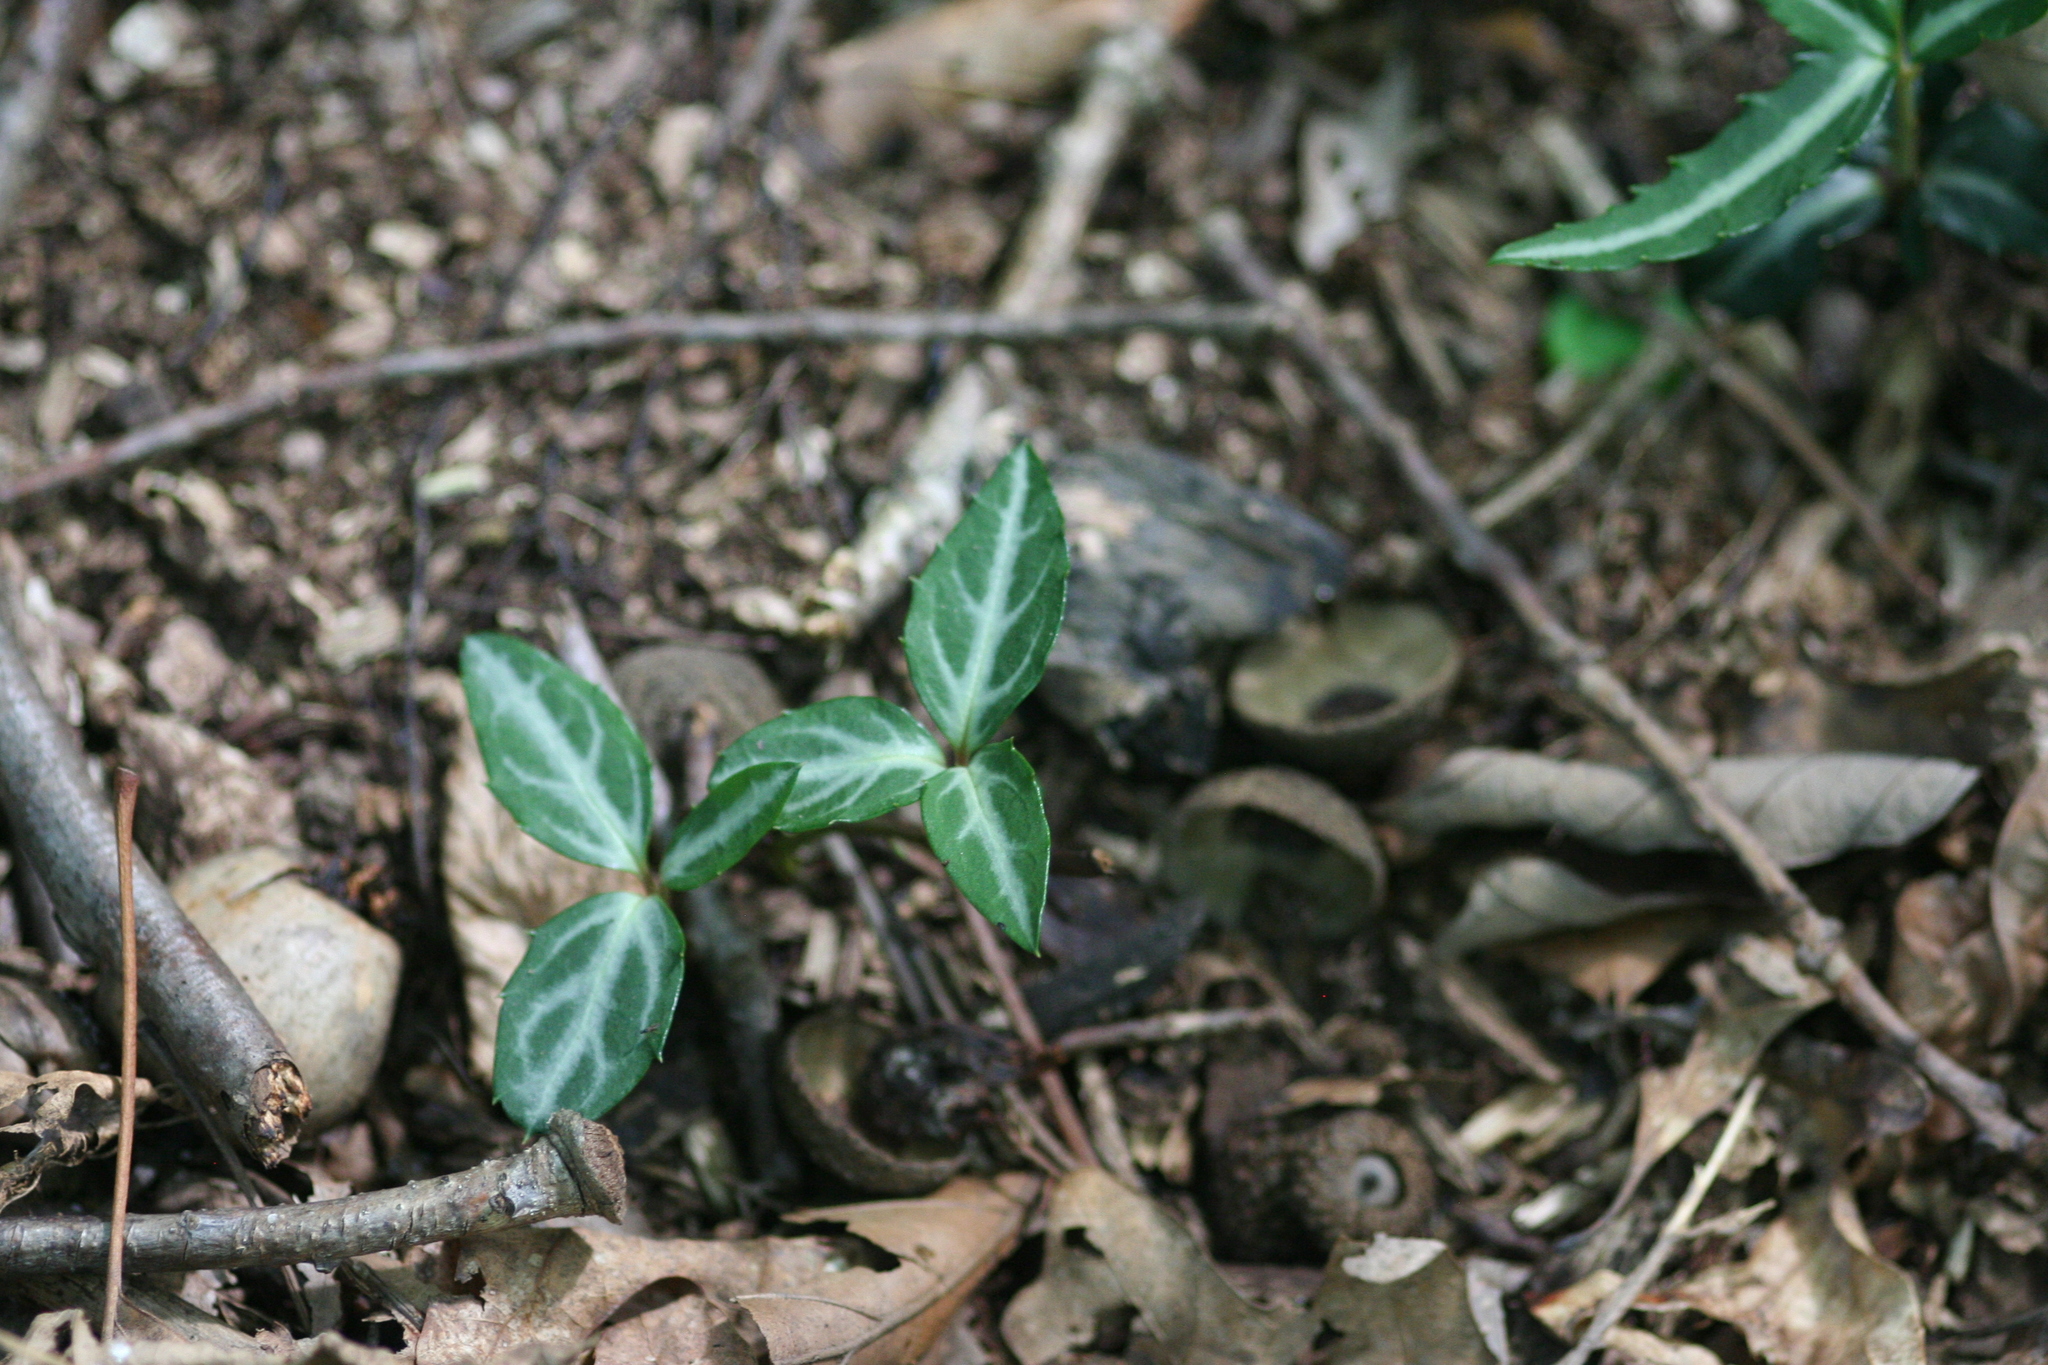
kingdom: Plantae
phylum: Tracheophyta
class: Magnoliopsida
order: Ericales
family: Ericaceae
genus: Chimaphila
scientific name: Chimaphila maculata
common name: Spotted pipsissewa
